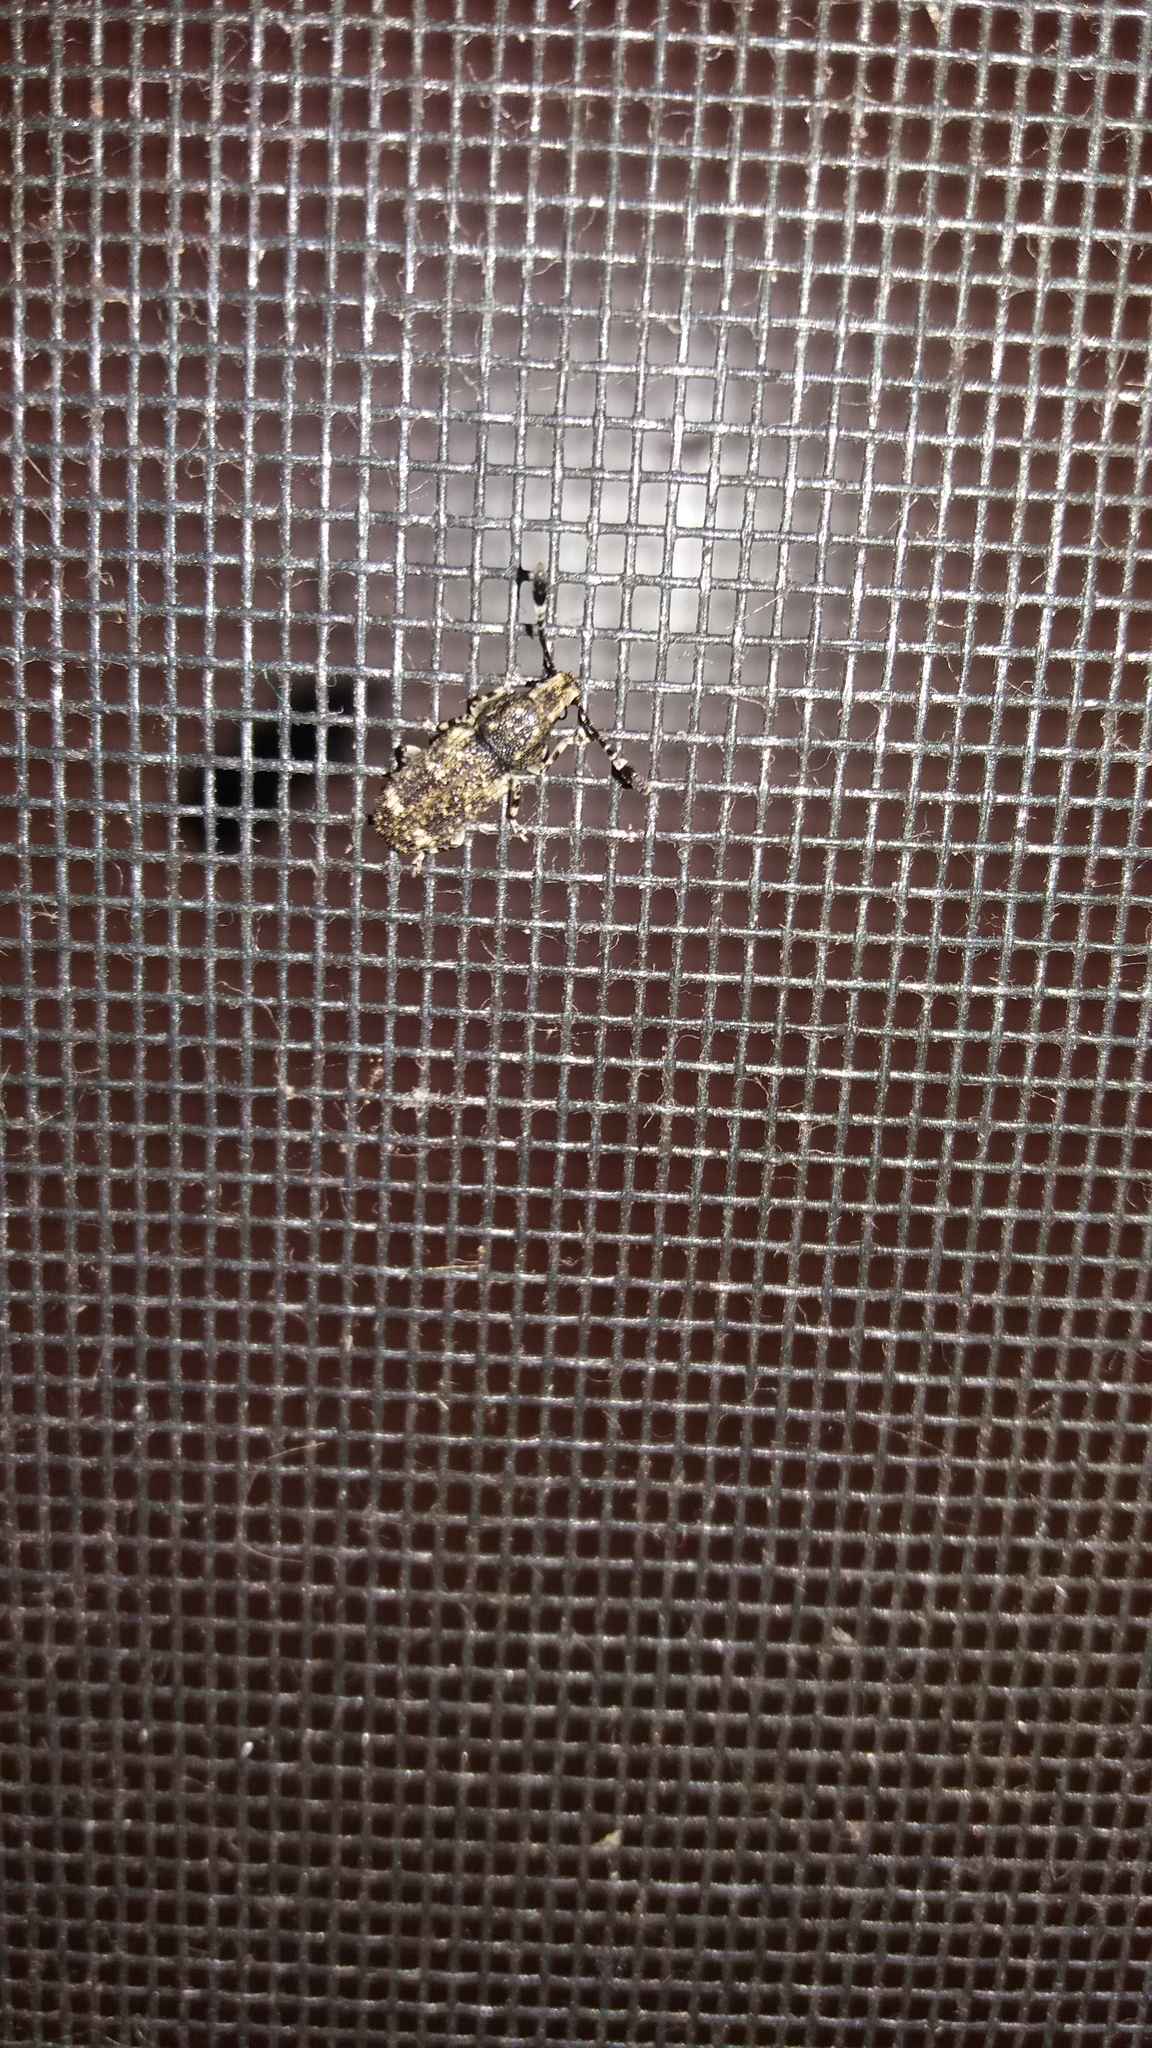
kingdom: Animalia
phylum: Arthropoda
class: Insecta
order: Coleoptera
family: Anthribidae
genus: Eucorynus
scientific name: Eucorynus crassicornis
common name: Fungus weevil
